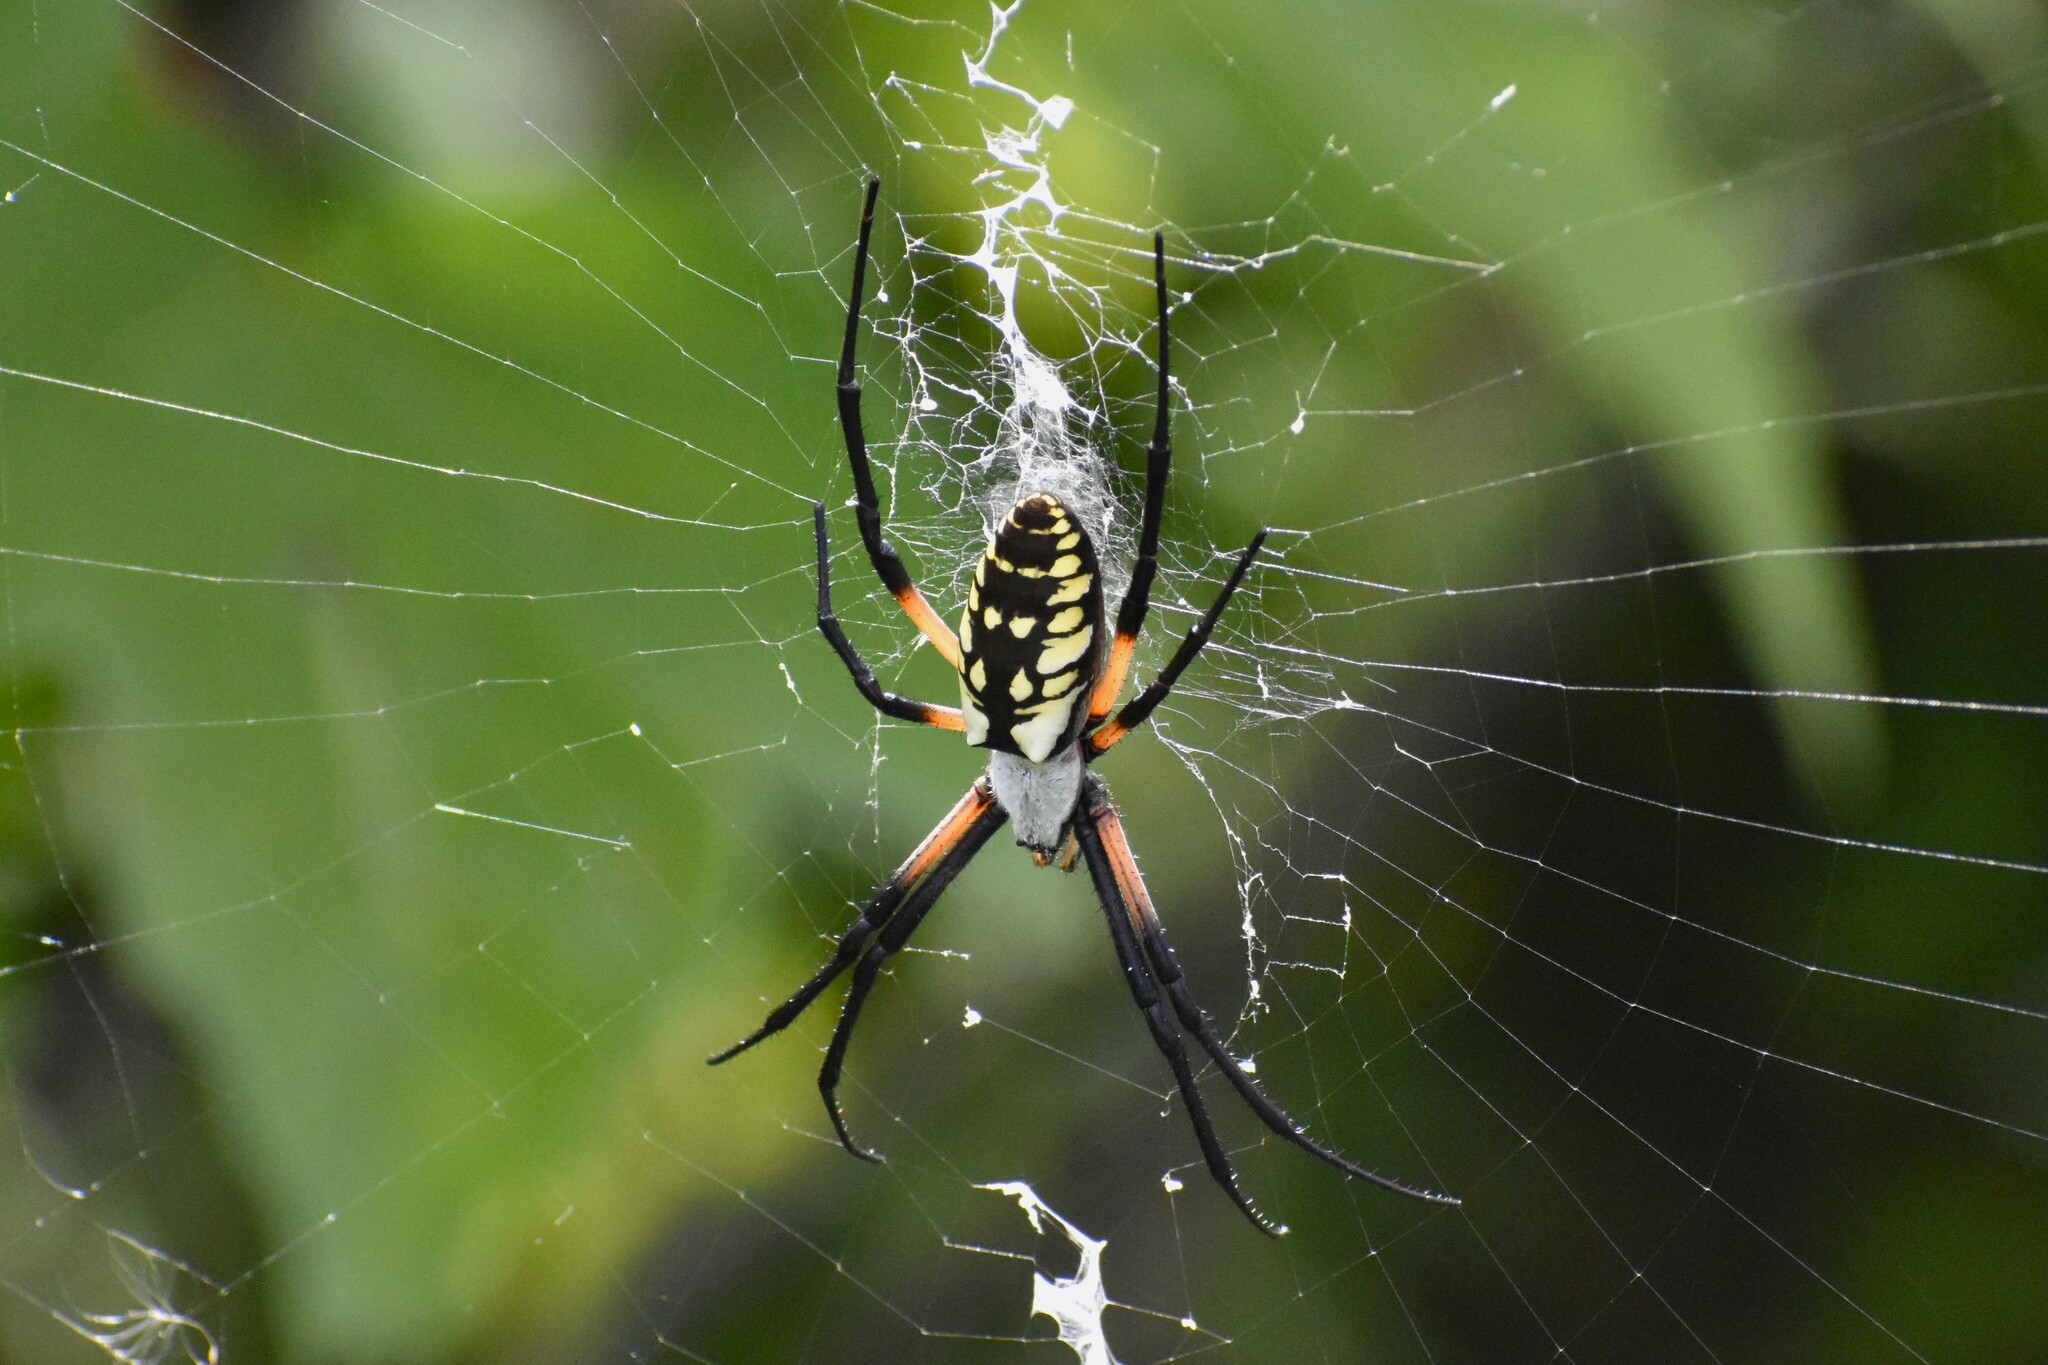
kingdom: Animalia
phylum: Arthropoda
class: Arachnida
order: Araneae
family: Araneidae
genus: Argiope
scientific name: Argiope aurantia
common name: Orb weavers
